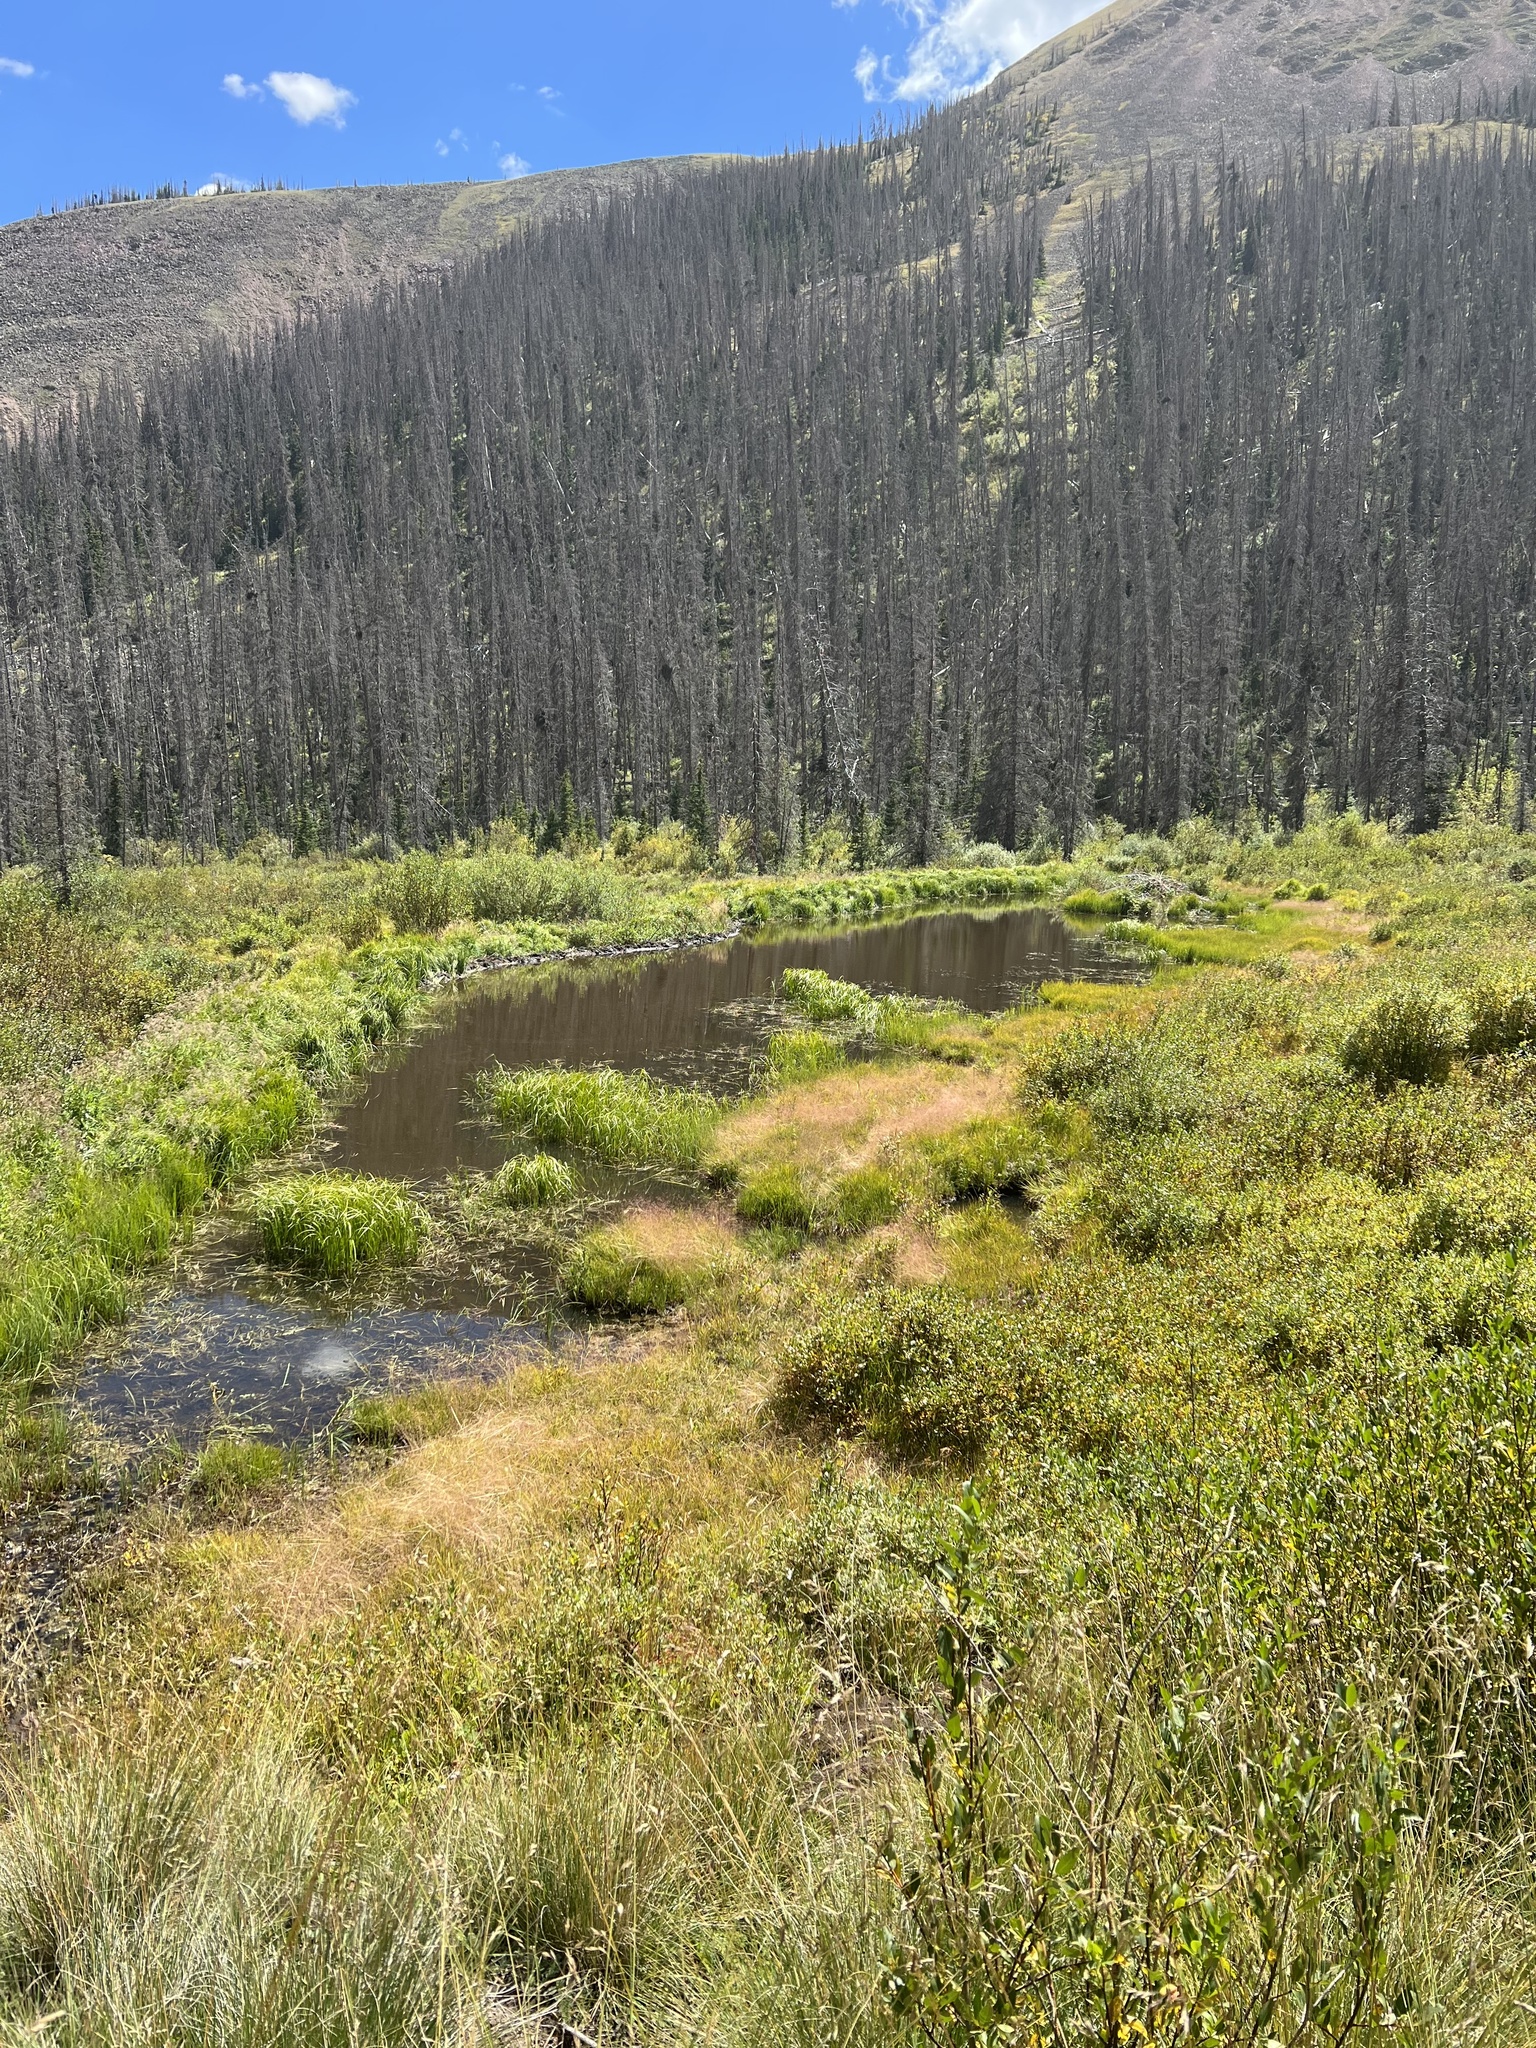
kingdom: Animalia
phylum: Chordata
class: Mammalia
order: Rodentia
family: Castoridae
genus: Castor
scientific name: Castor canadensis
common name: American beaver
